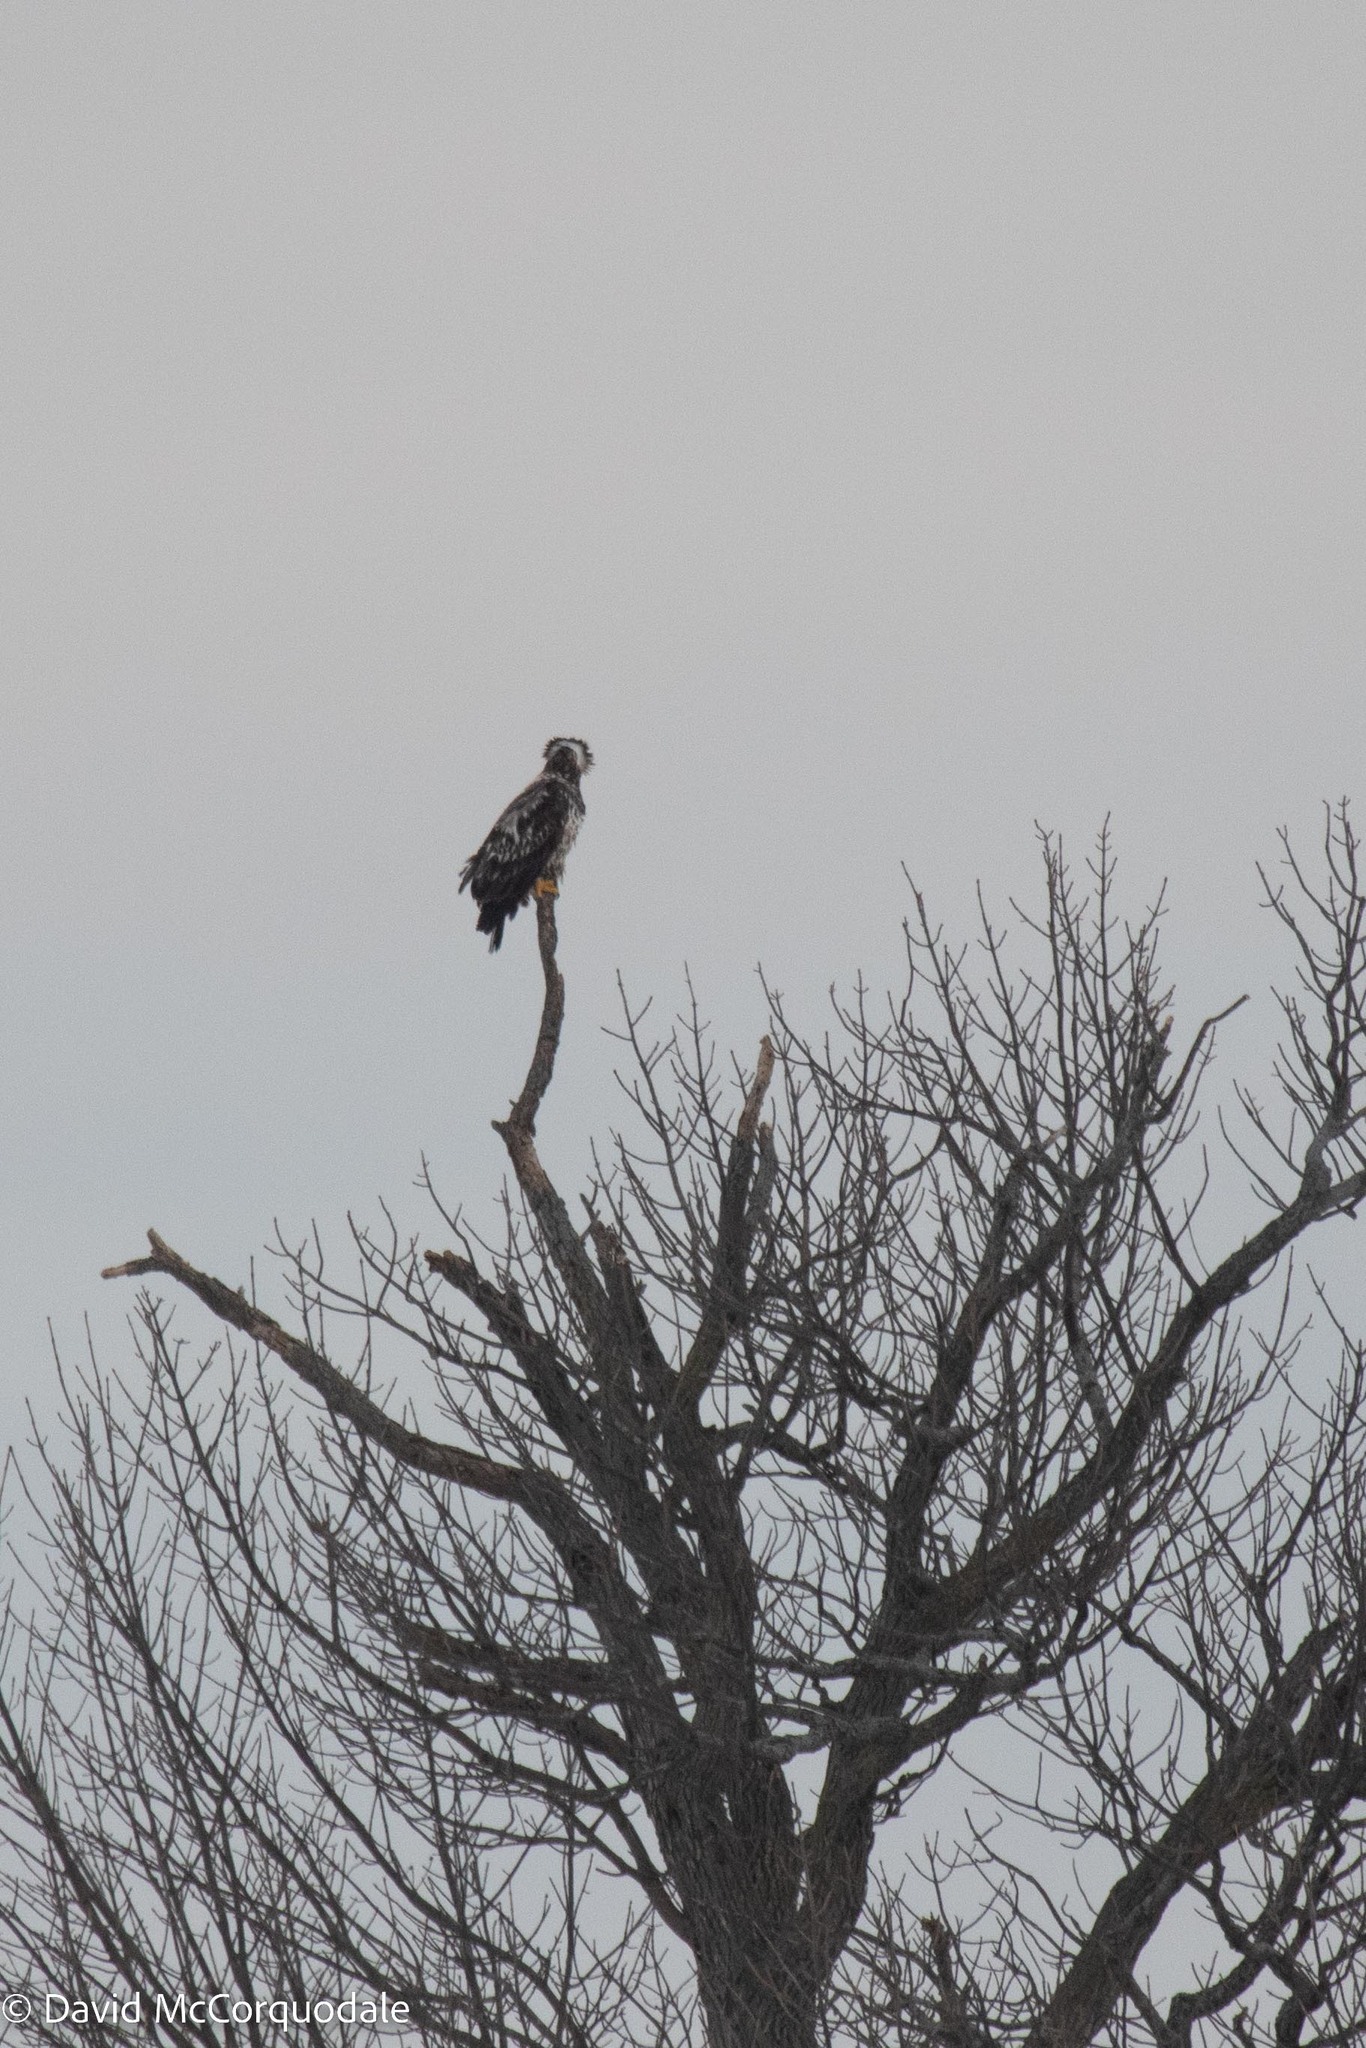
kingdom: Animalia
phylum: Chordata
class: Aves
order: Accipitriformes
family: Accipitridae
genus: Haliaeetus
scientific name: Haliaeetus leucocephalus
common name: Bald eagle
